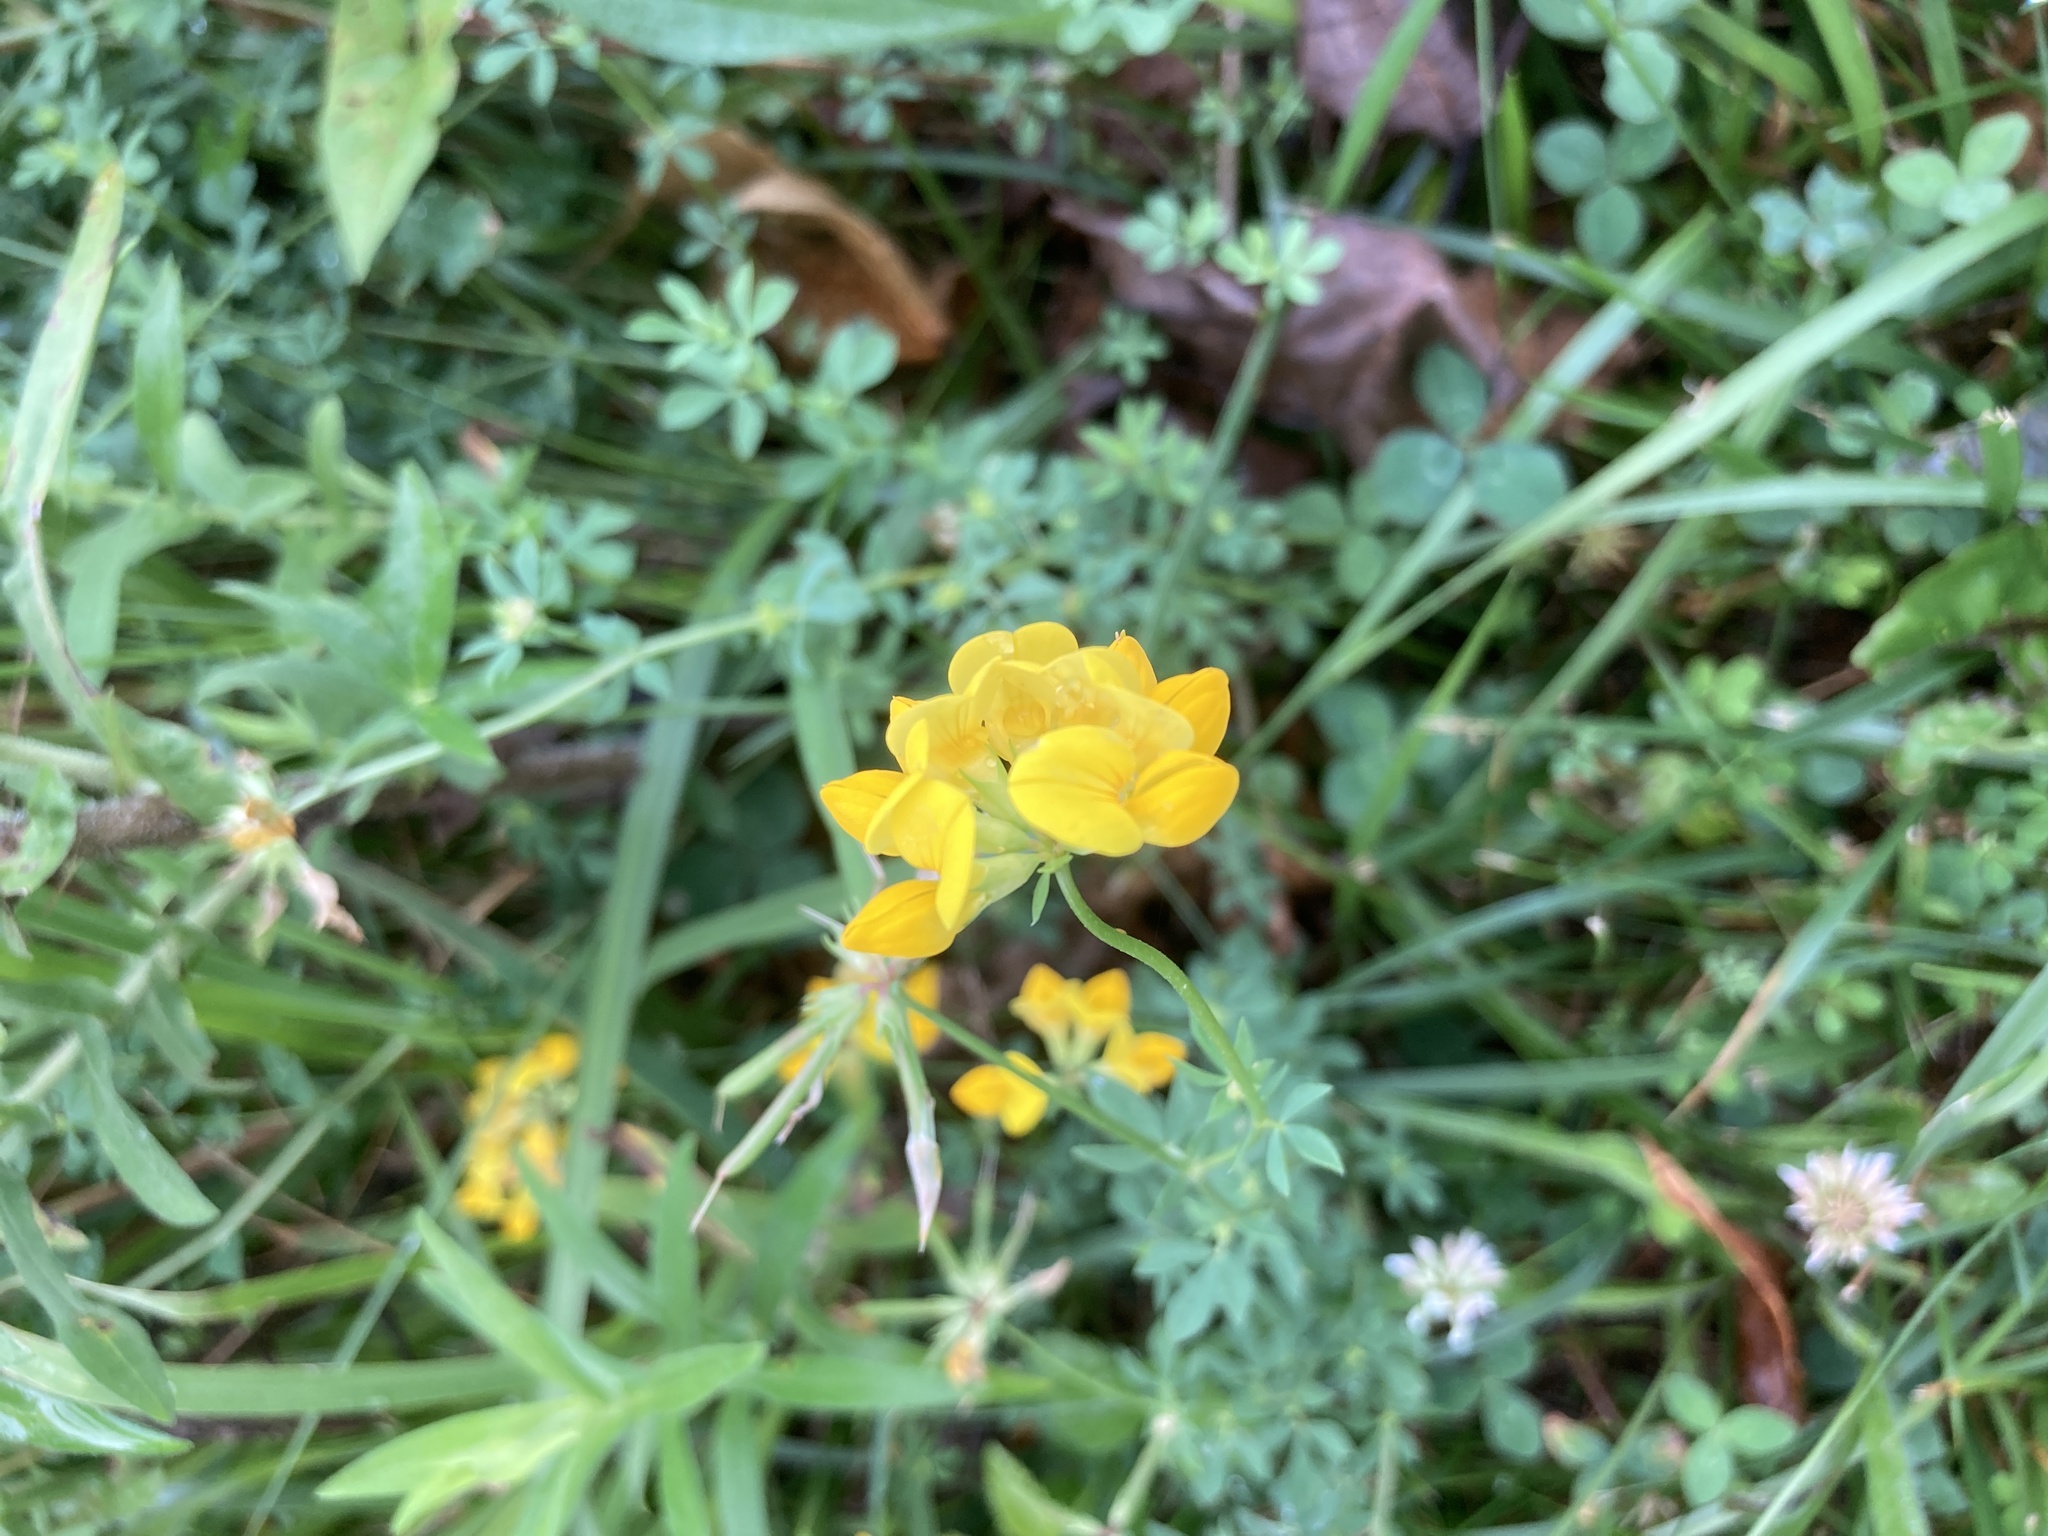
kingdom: Plantae
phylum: Tracheophyta
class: Magnoliopsida
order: Fabales
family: Fabaceae
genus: Lotus
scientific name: Lotus corniculatus
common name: Common bird's-foot-trefoil
